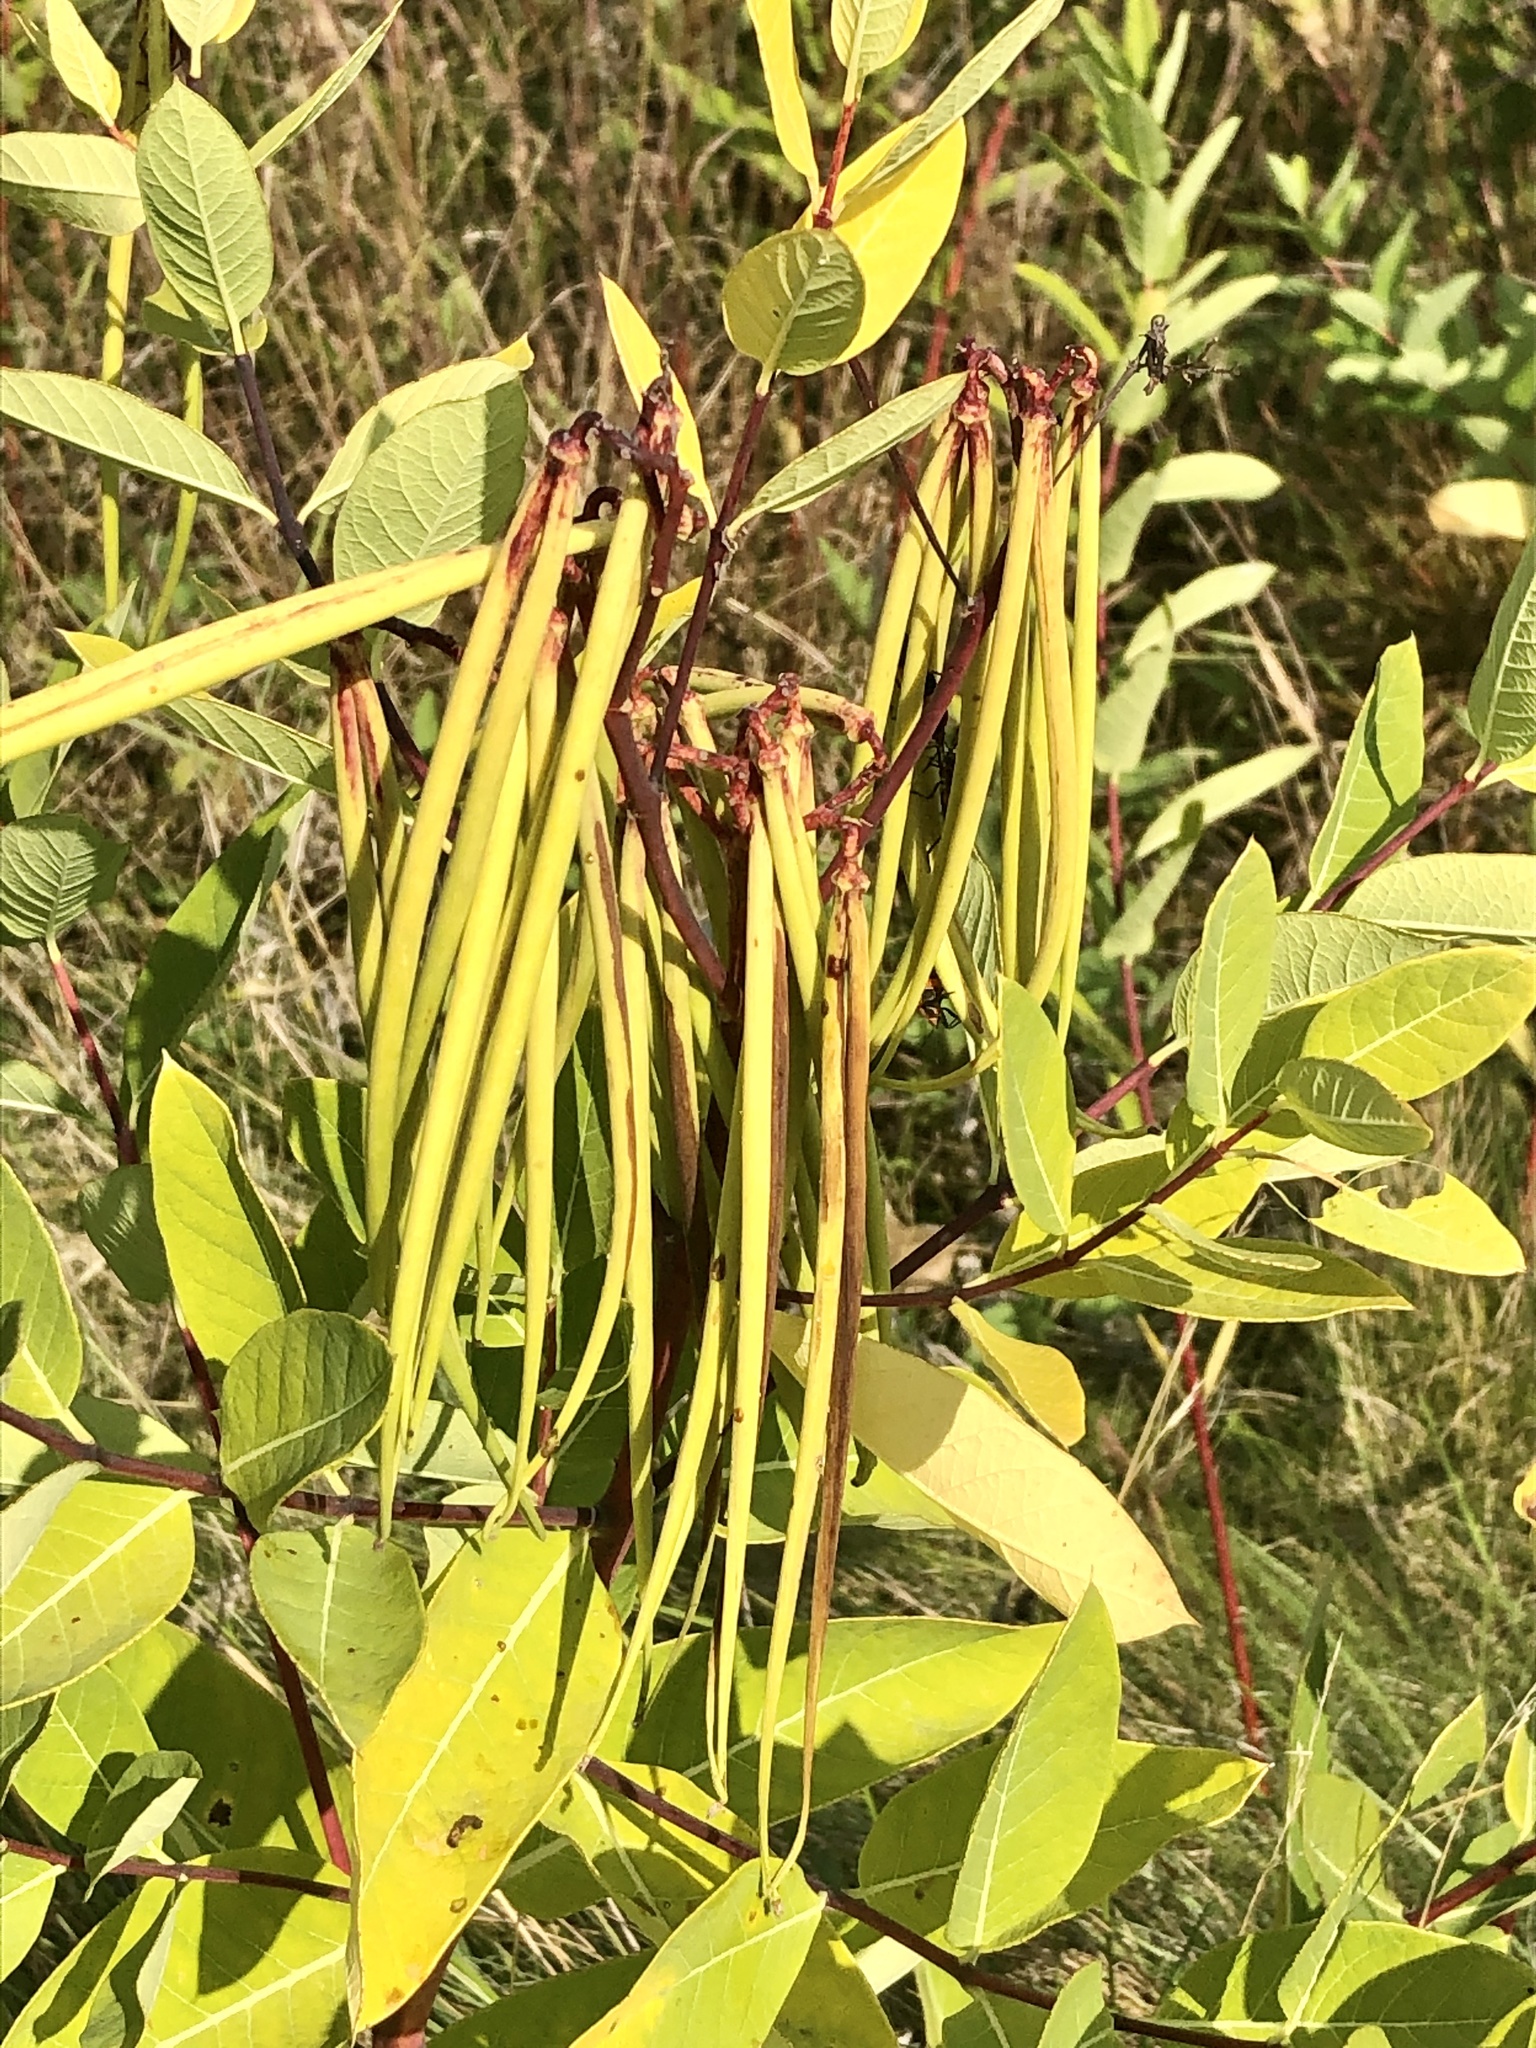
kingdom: Plantae
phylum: Tracheophyta
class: Magnoliopsida
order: Gentianales
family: Apocynaceae
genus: Apocynum
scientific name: Apocynum cannabinum
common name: Hemp dogbane
